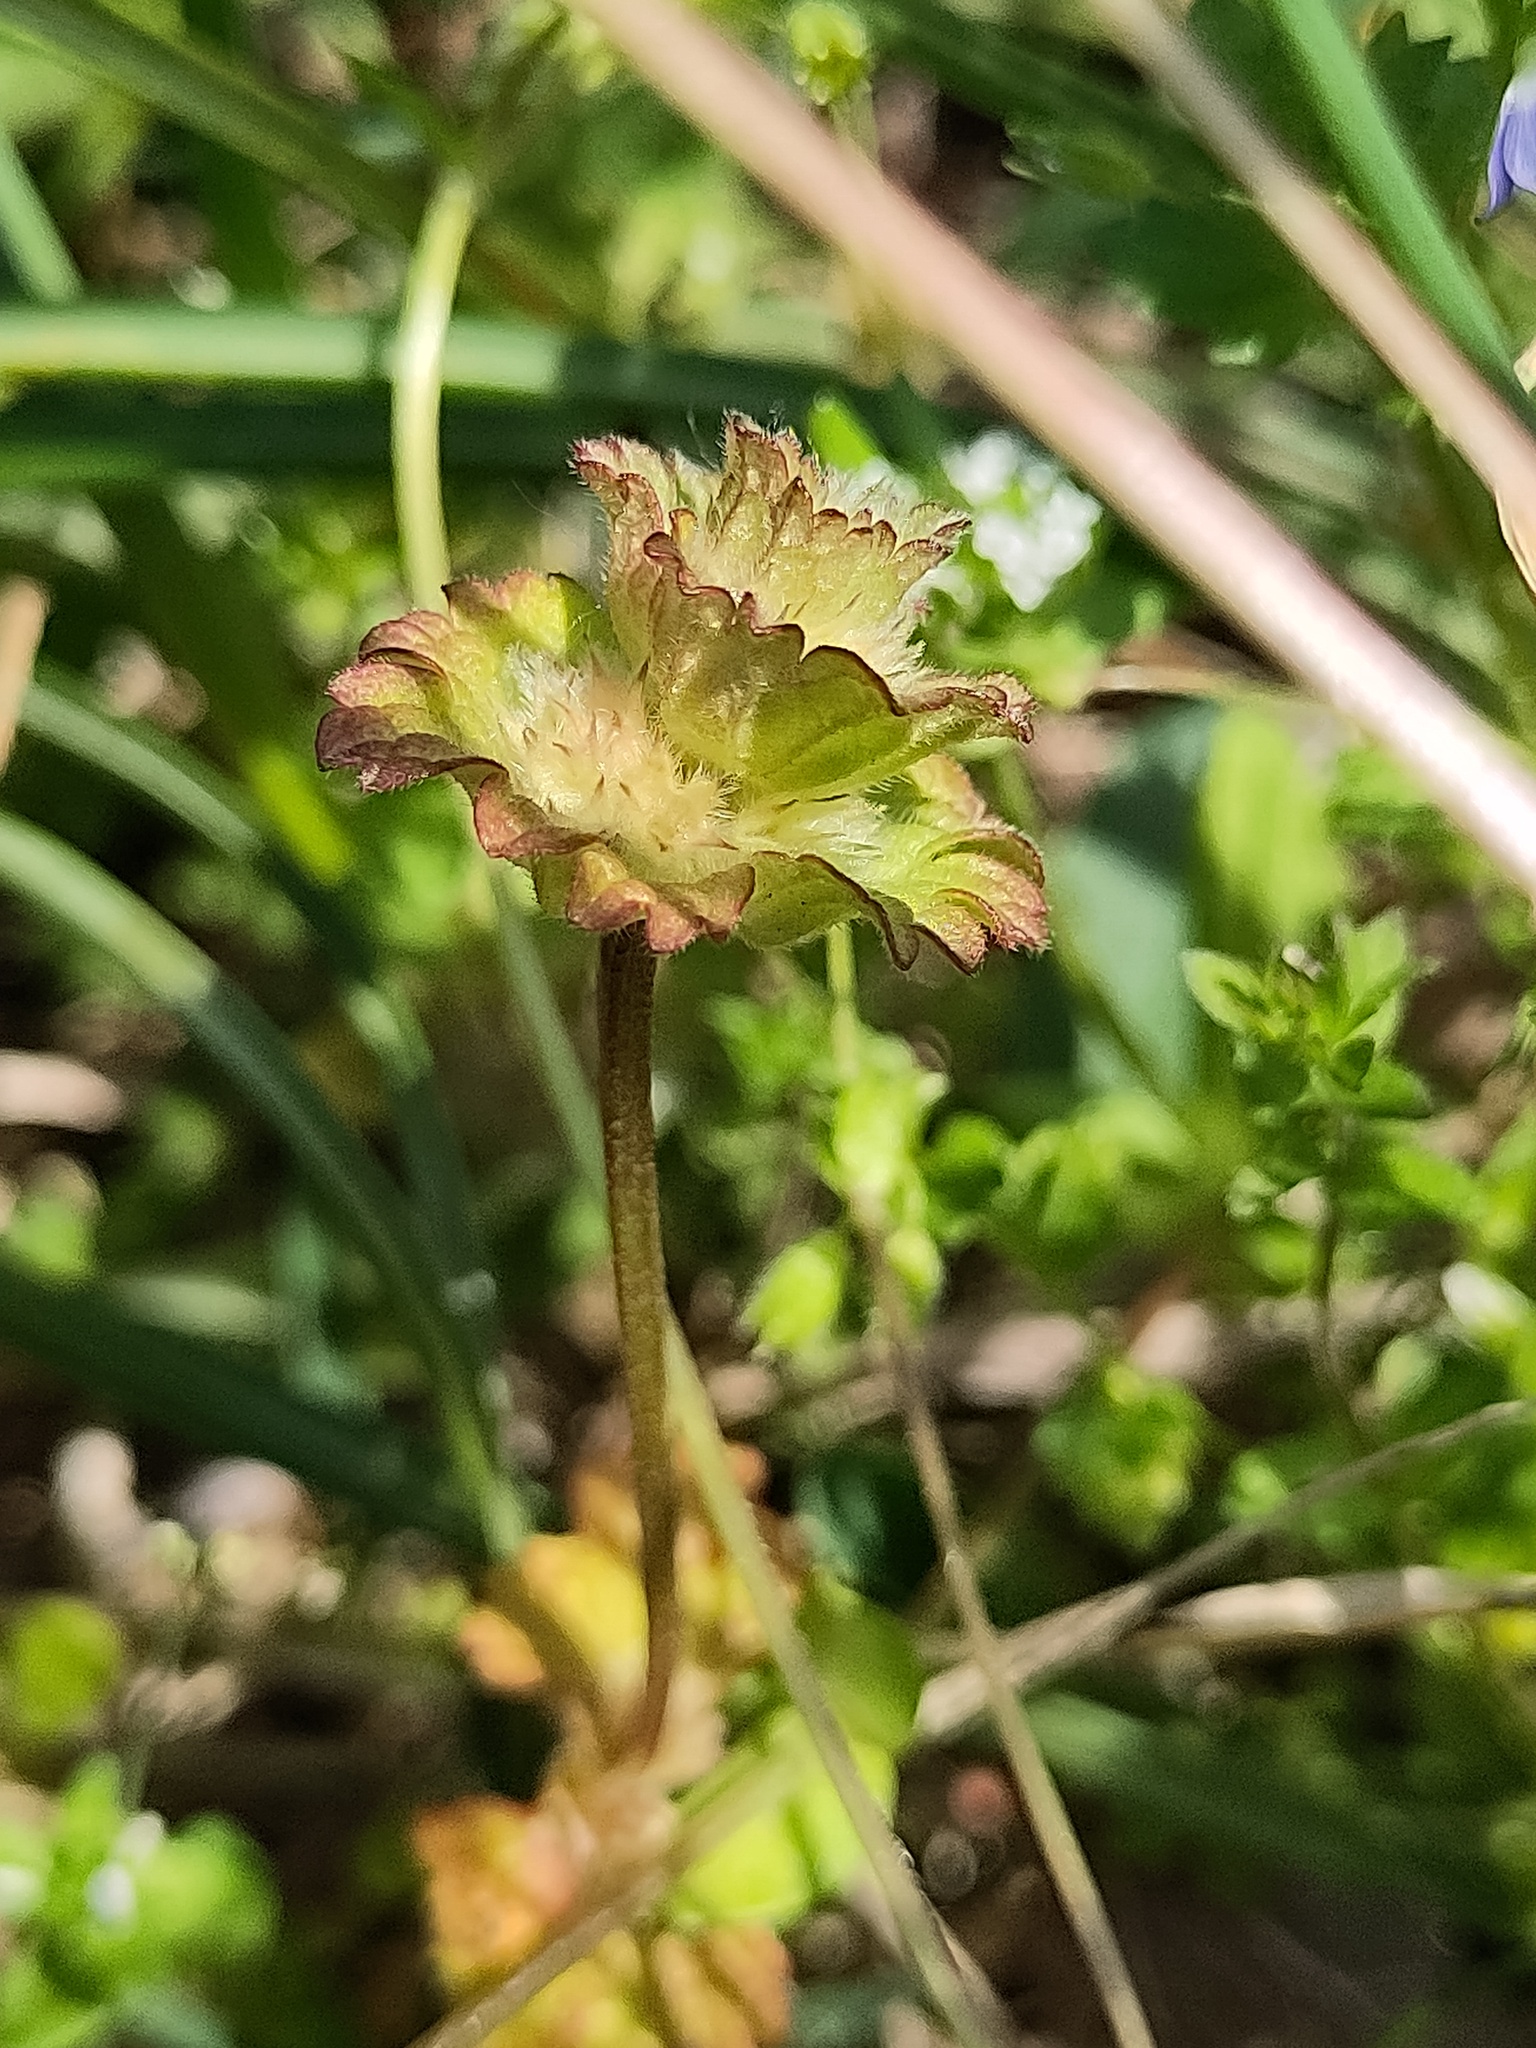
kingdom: Plantae
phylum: Tracheophyta
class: Magnoliopsida
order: Lamiales
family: Lamiaceae
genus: Lamium
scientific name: Lamium amplexicaule
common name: Henbit dead-nettle
